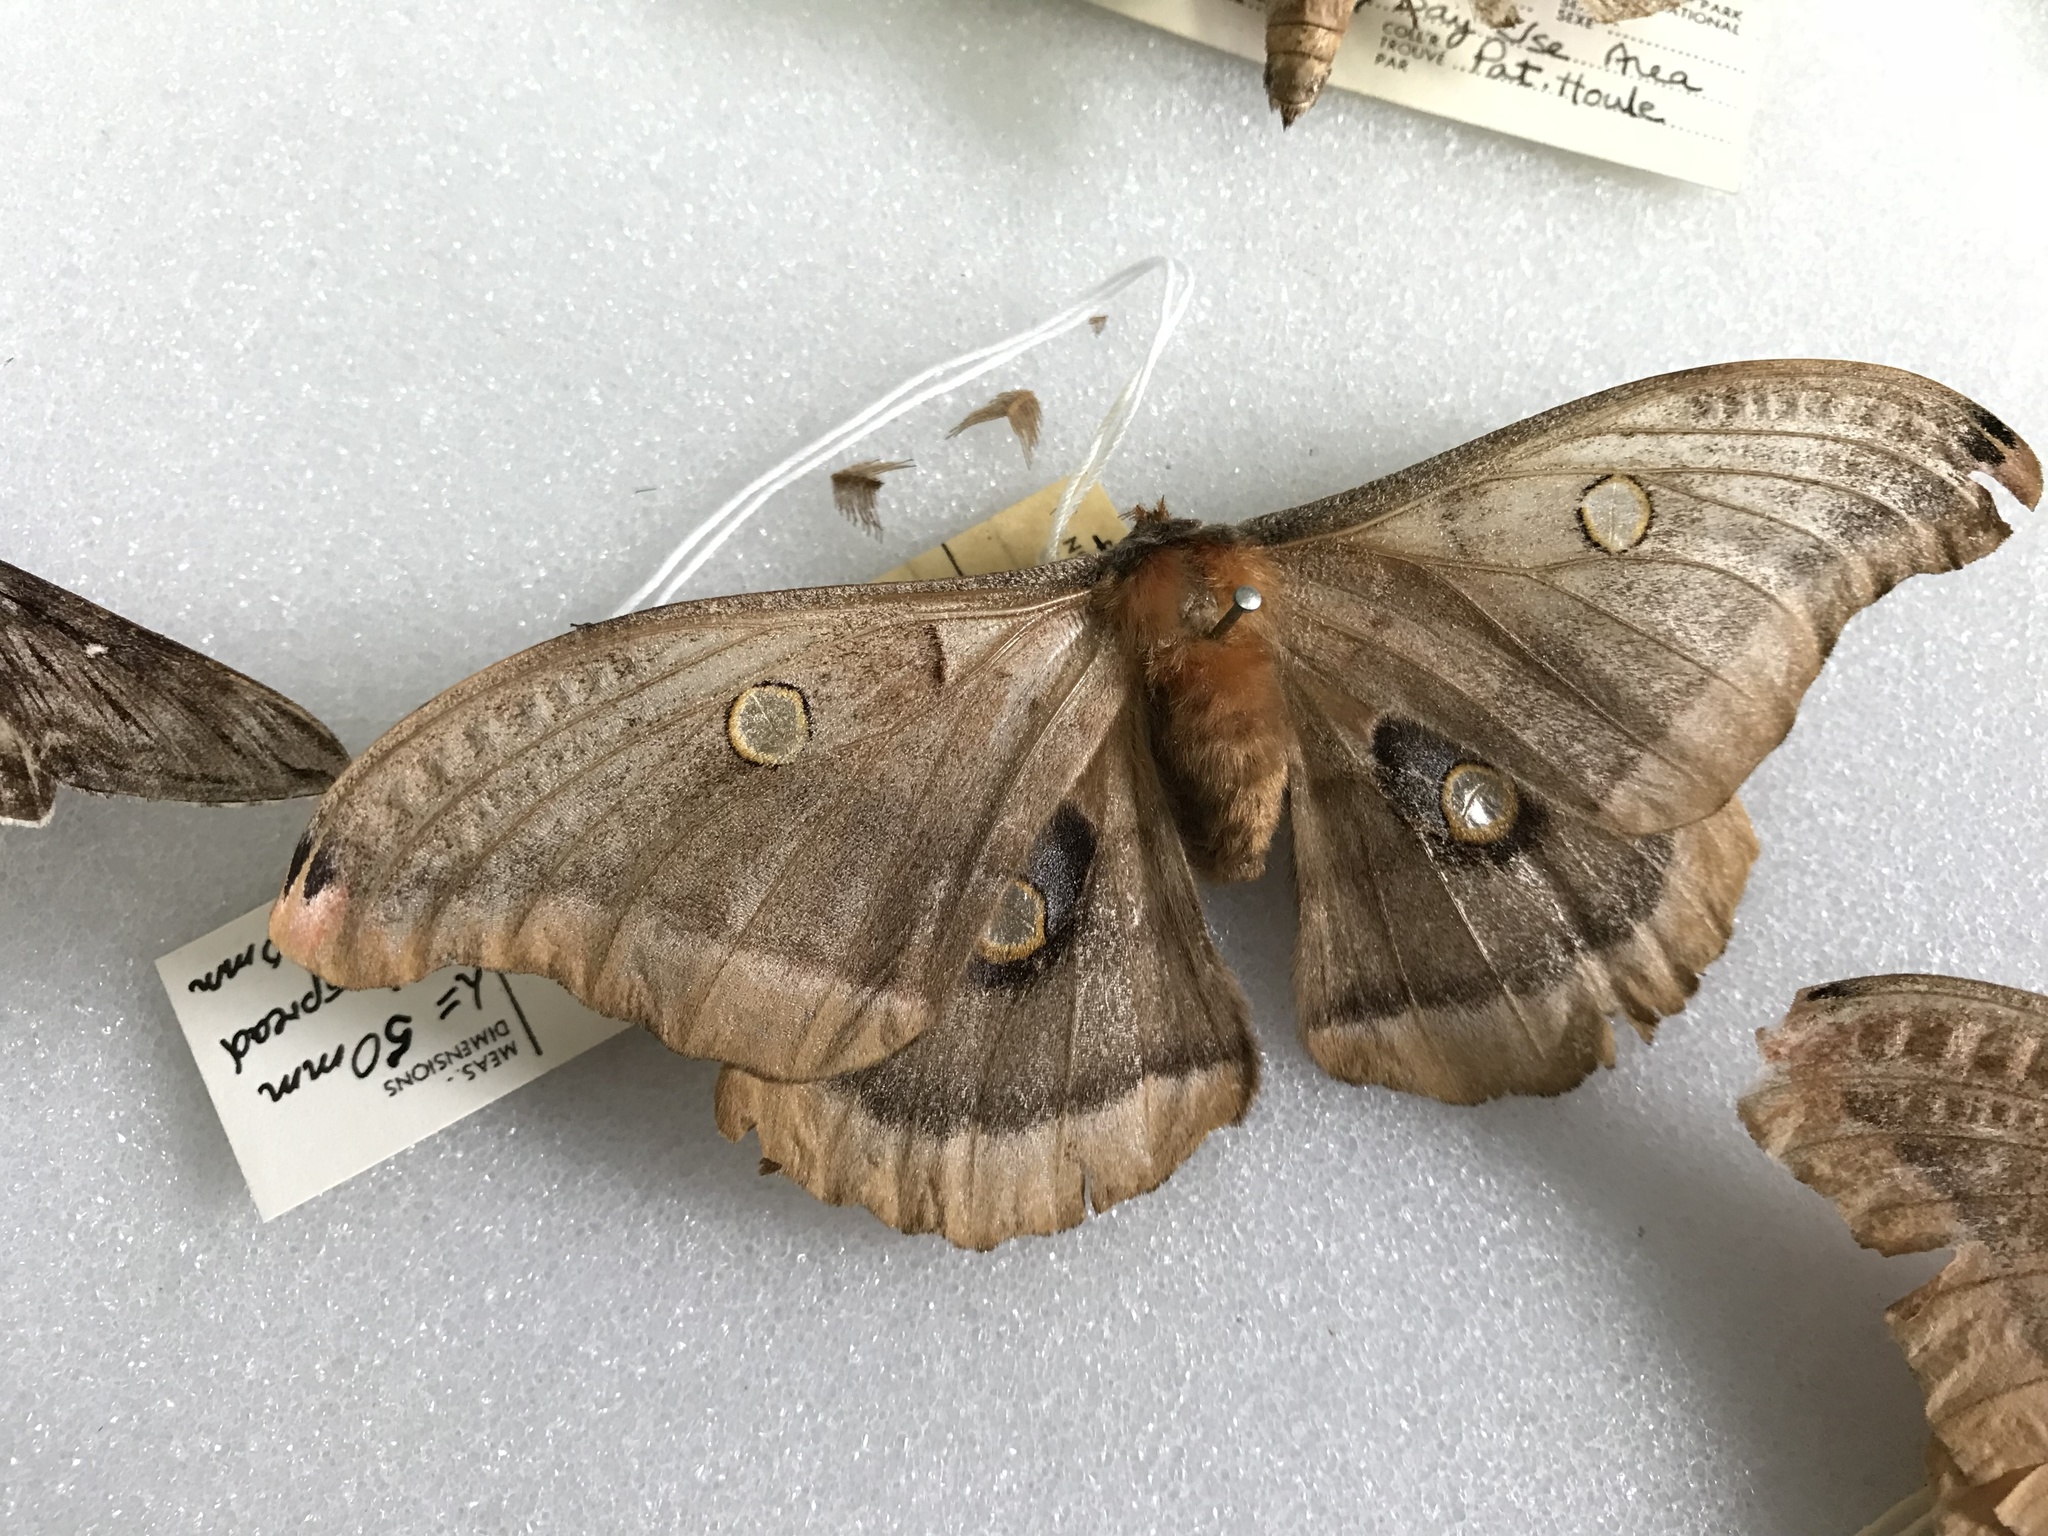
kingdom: Animalia
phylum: Arthropoda
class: Insecta
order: Lepidoptera
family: Saturniidae
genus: Antheraea
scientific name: Antheraea polyphemus
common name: Polyphemus moth
